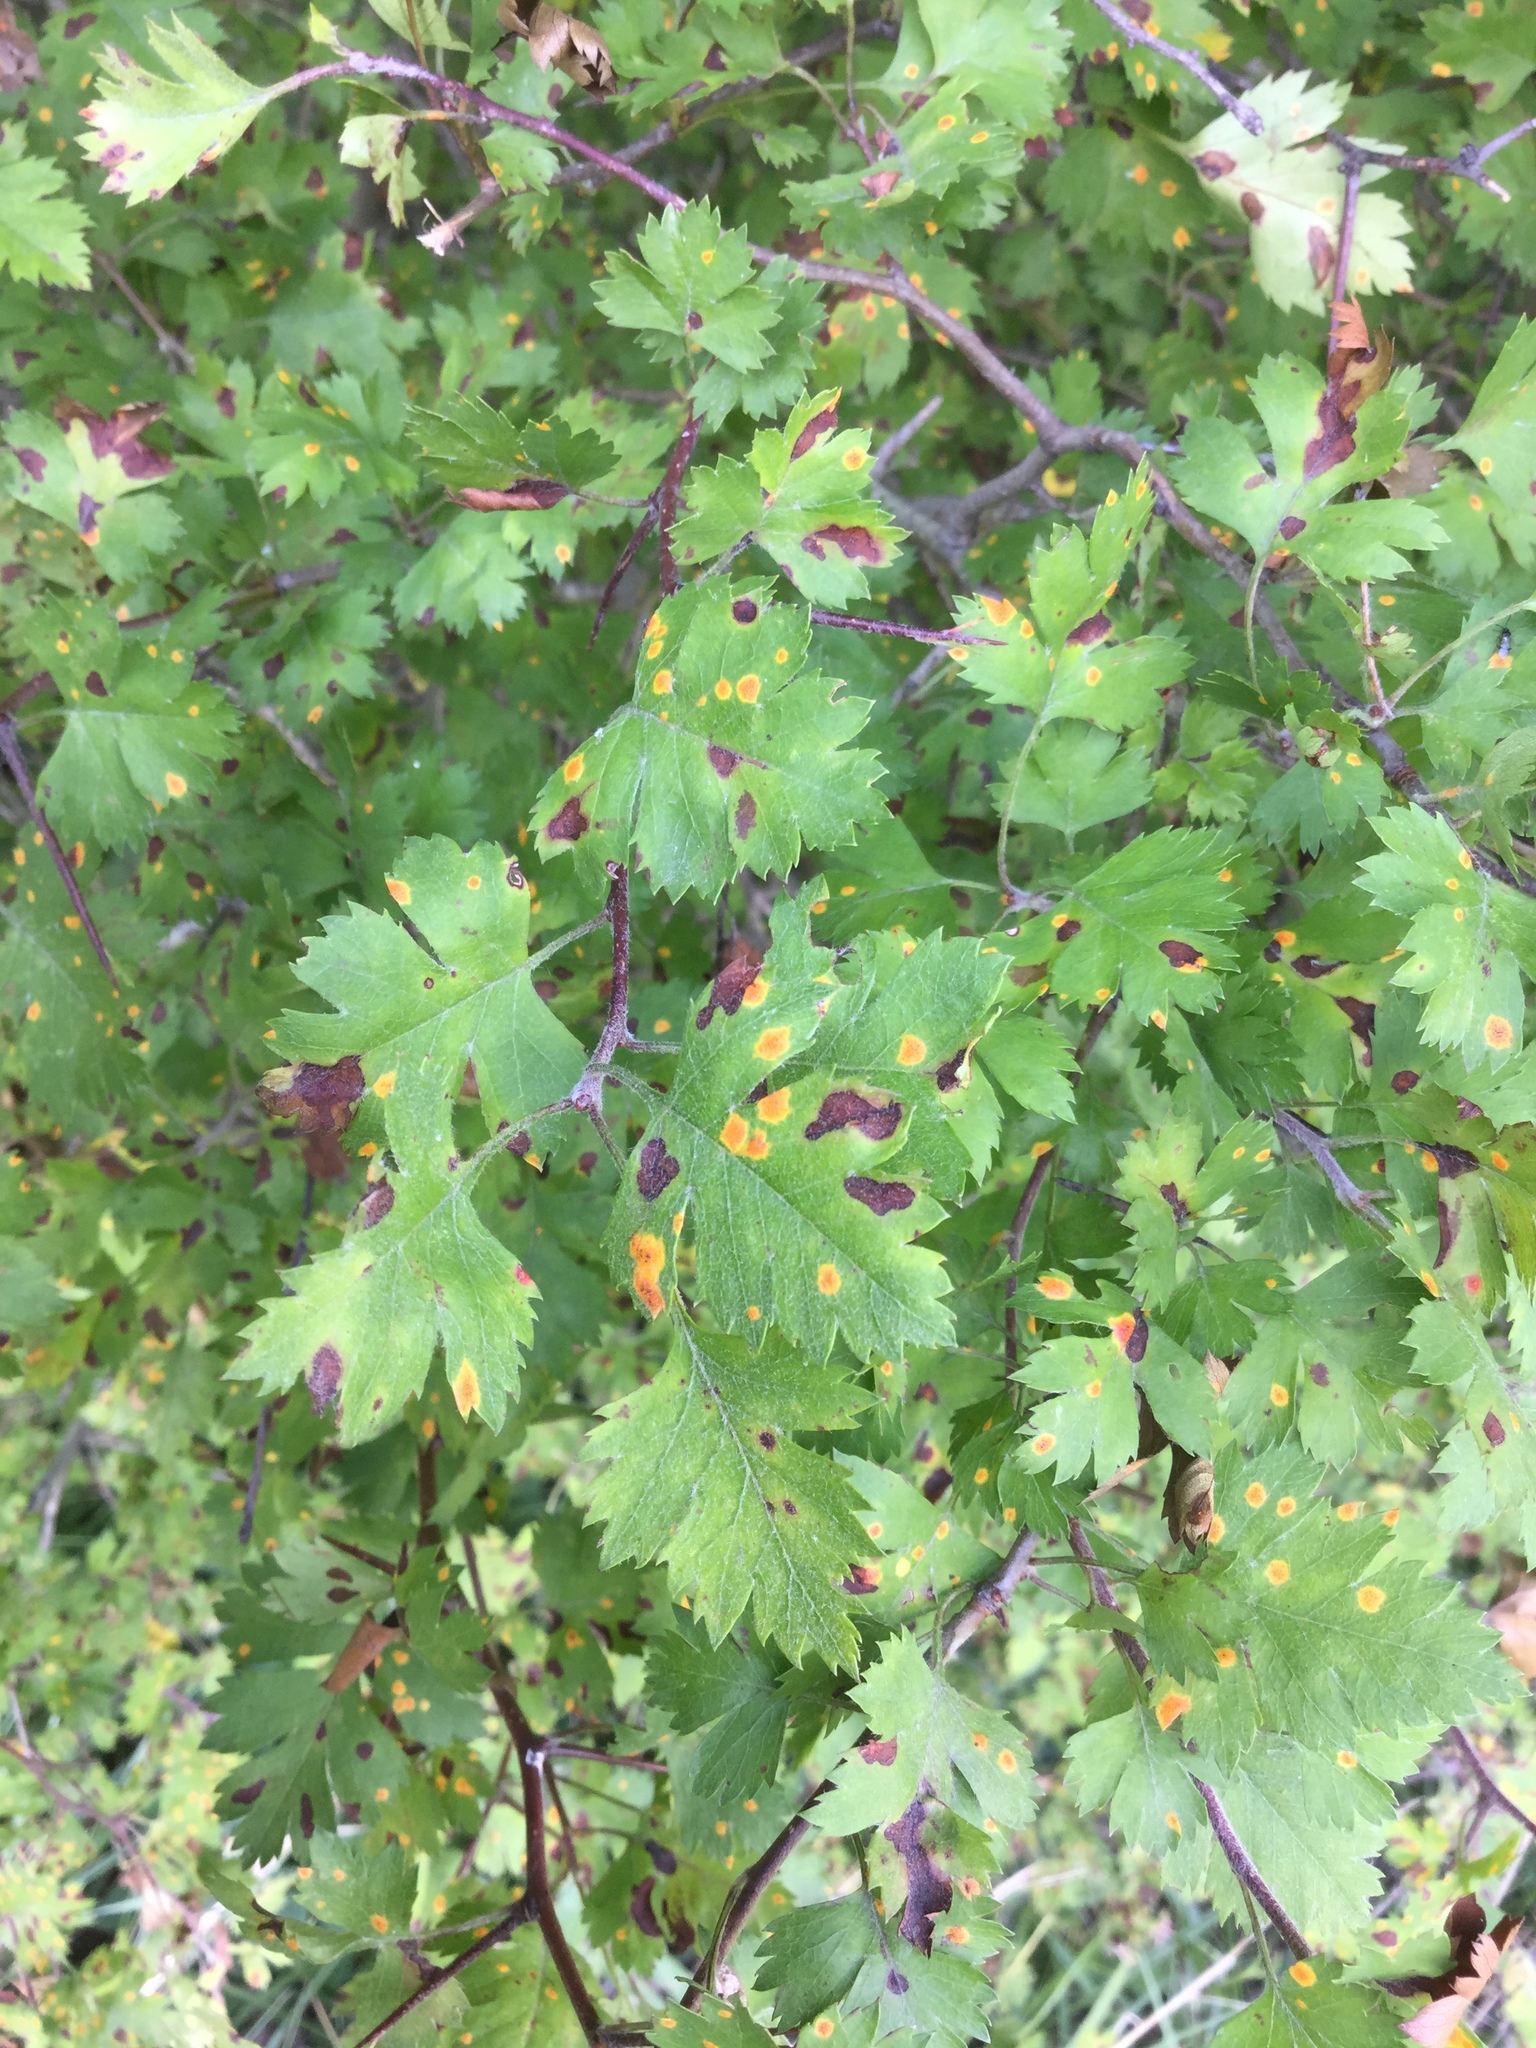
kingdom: Plantae
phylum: Tracheophyta
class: Magnoliopsida
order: Rosales
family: Rosaceae
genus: Crataegus
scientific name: Crataegus marshallii
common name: Parsley-hawthorn
